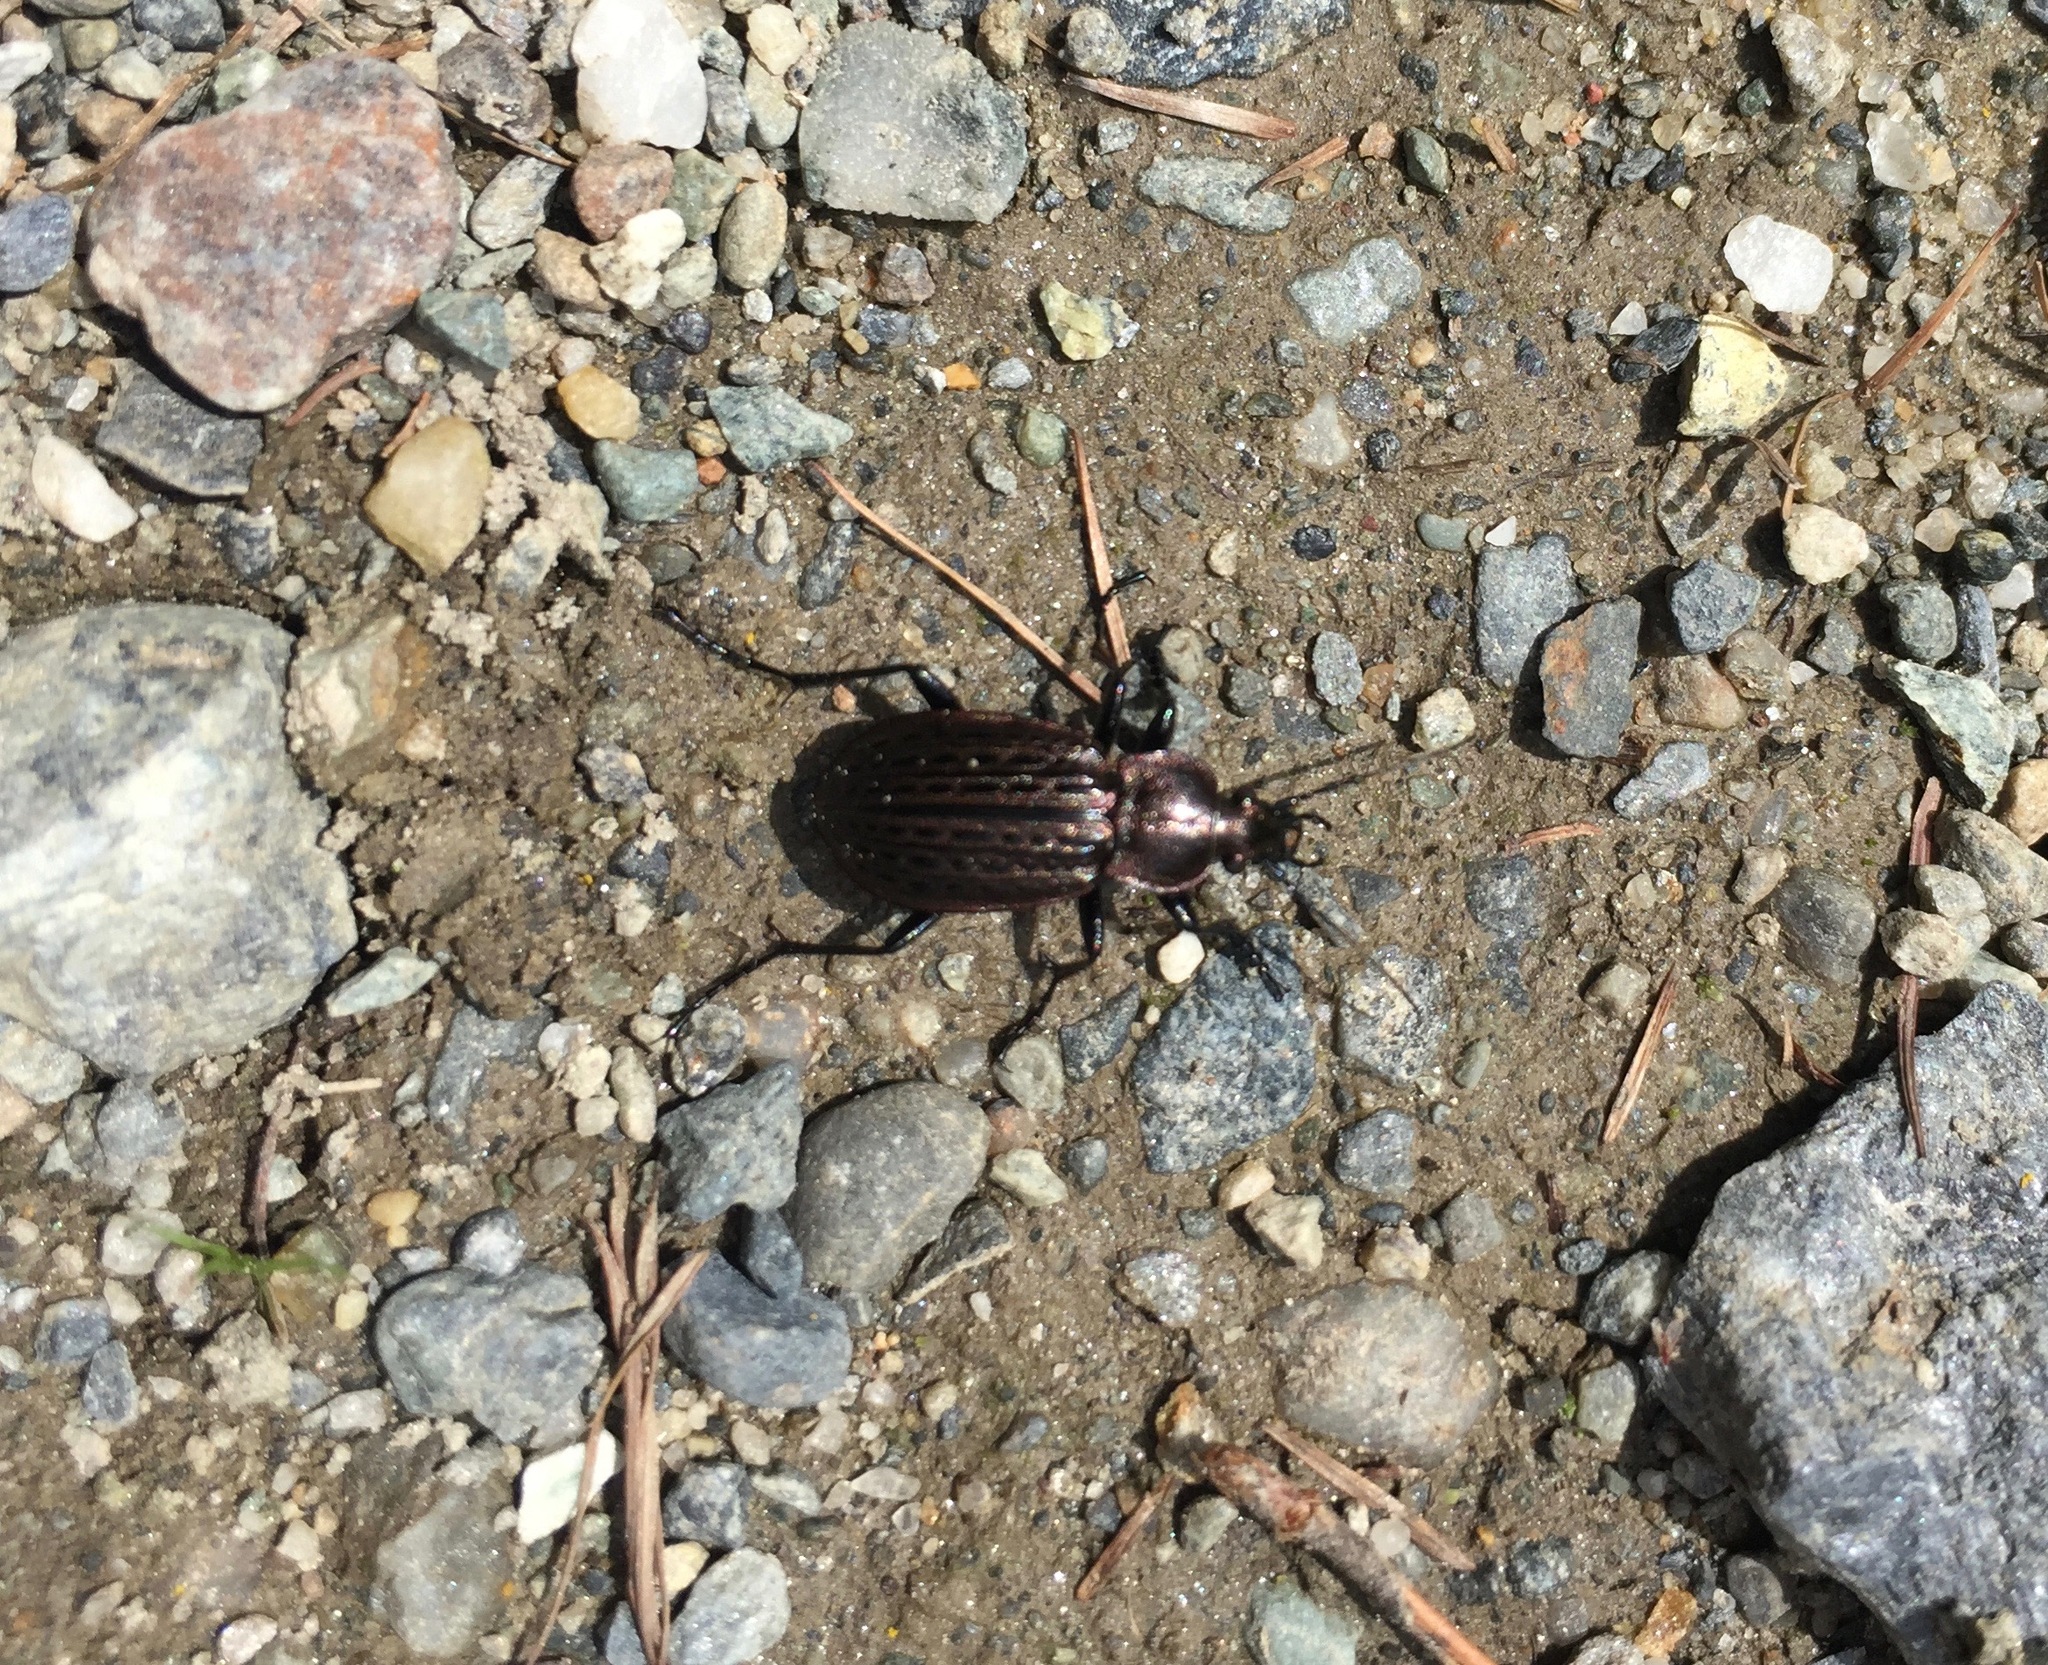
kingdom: Animalia
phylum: Arthropoda
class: Insecta
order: Coleoptera
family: Carabidae
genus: Carabus
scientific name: Carabus maeander
